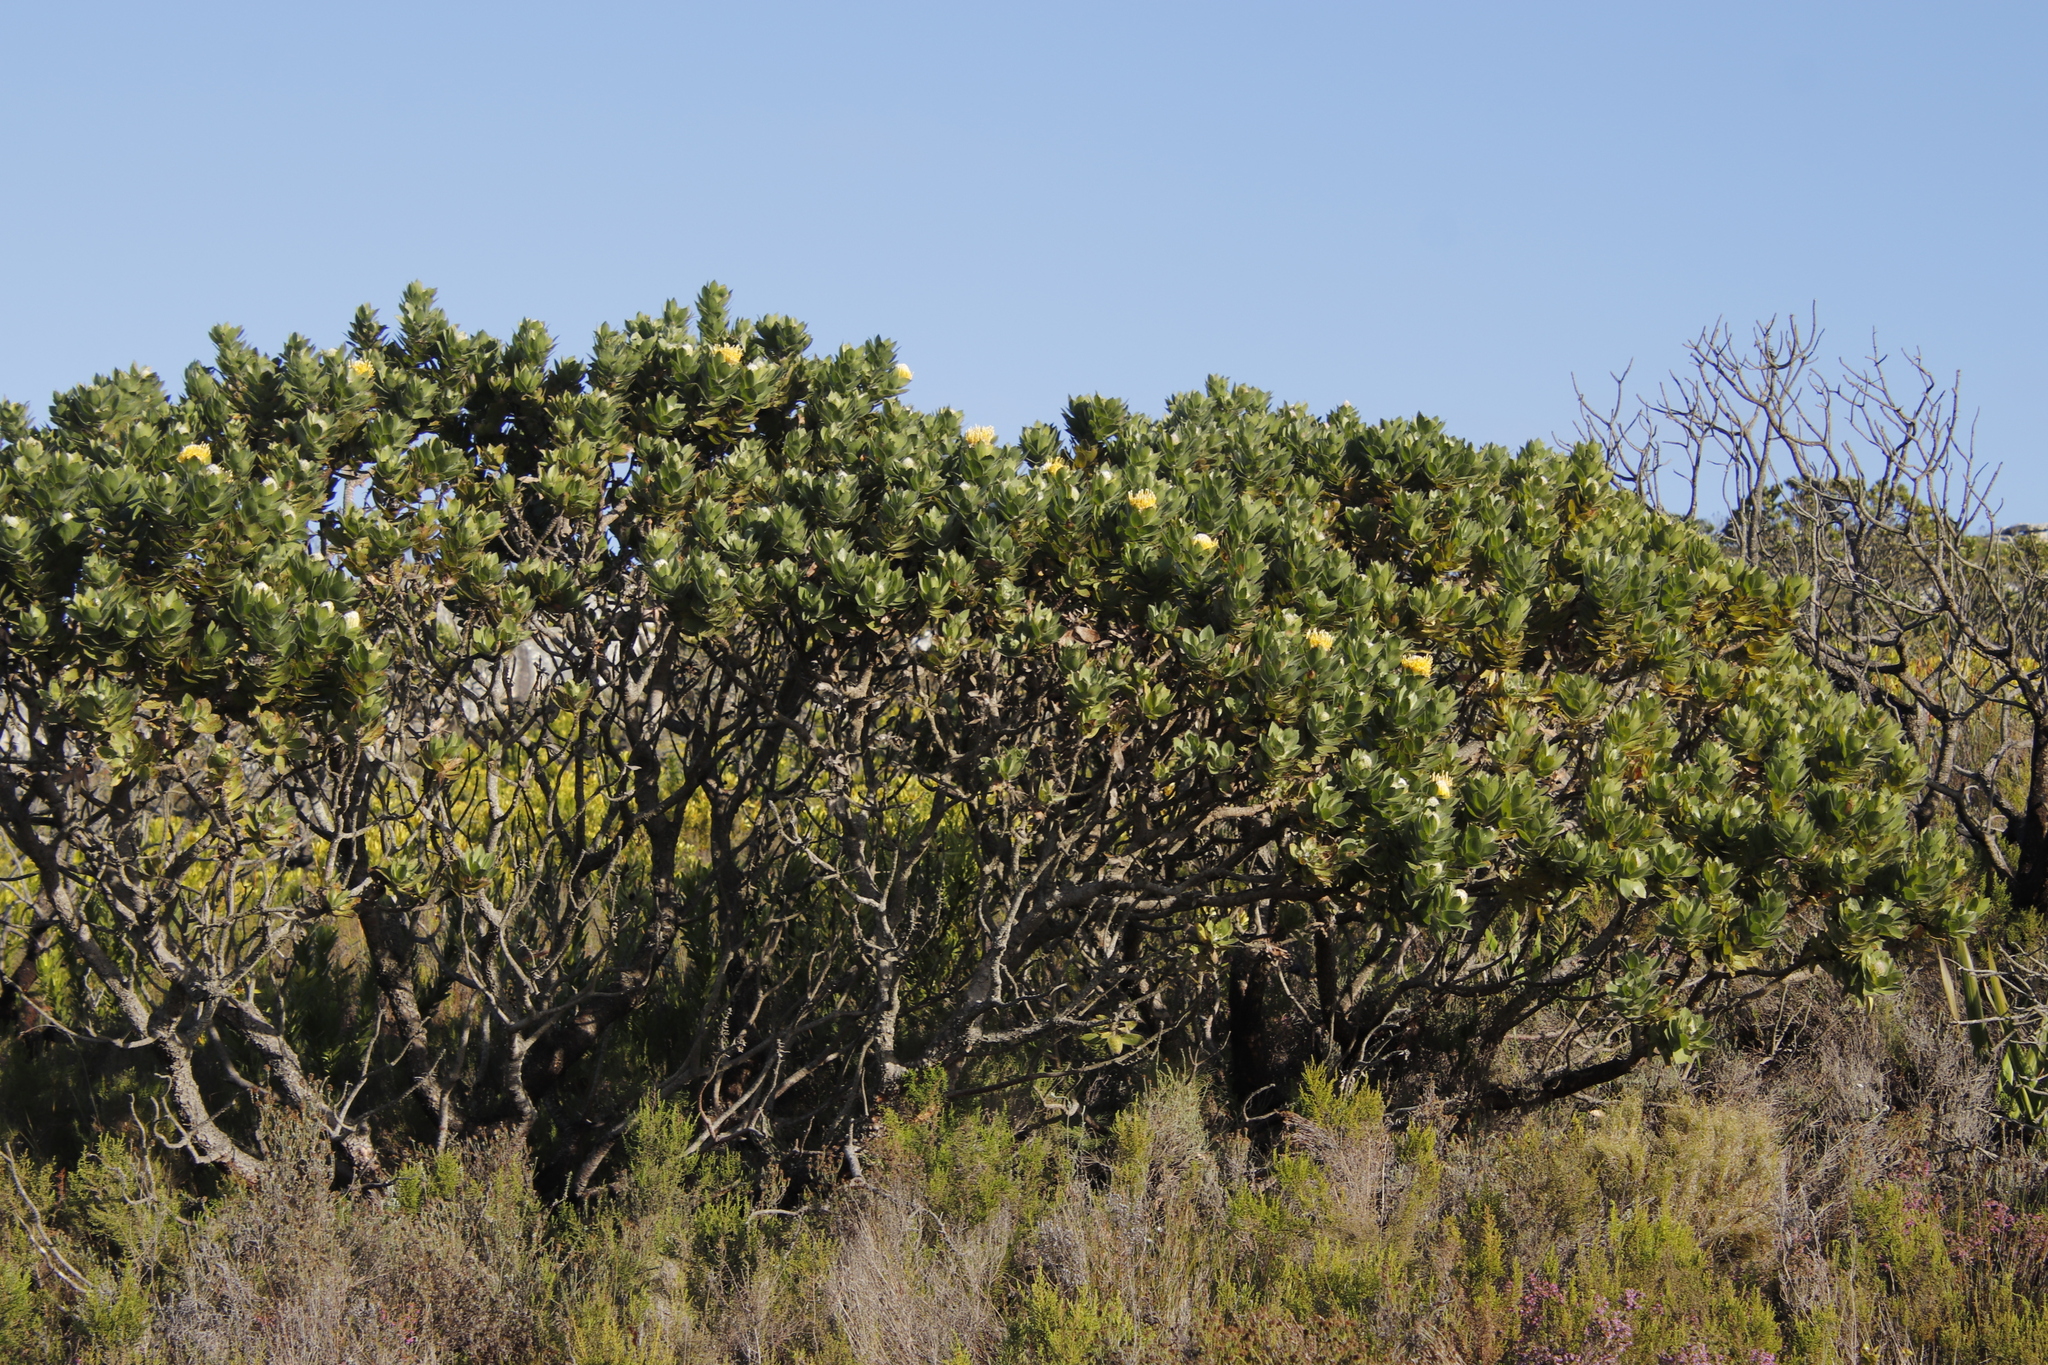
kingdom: Plantae
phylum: Tracheophyta
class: Magnoliopsida
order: Proteales
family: Proteaceae
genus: Leucospermum
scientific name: Leucospermum conocarpodendron
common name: Tree pincushion
